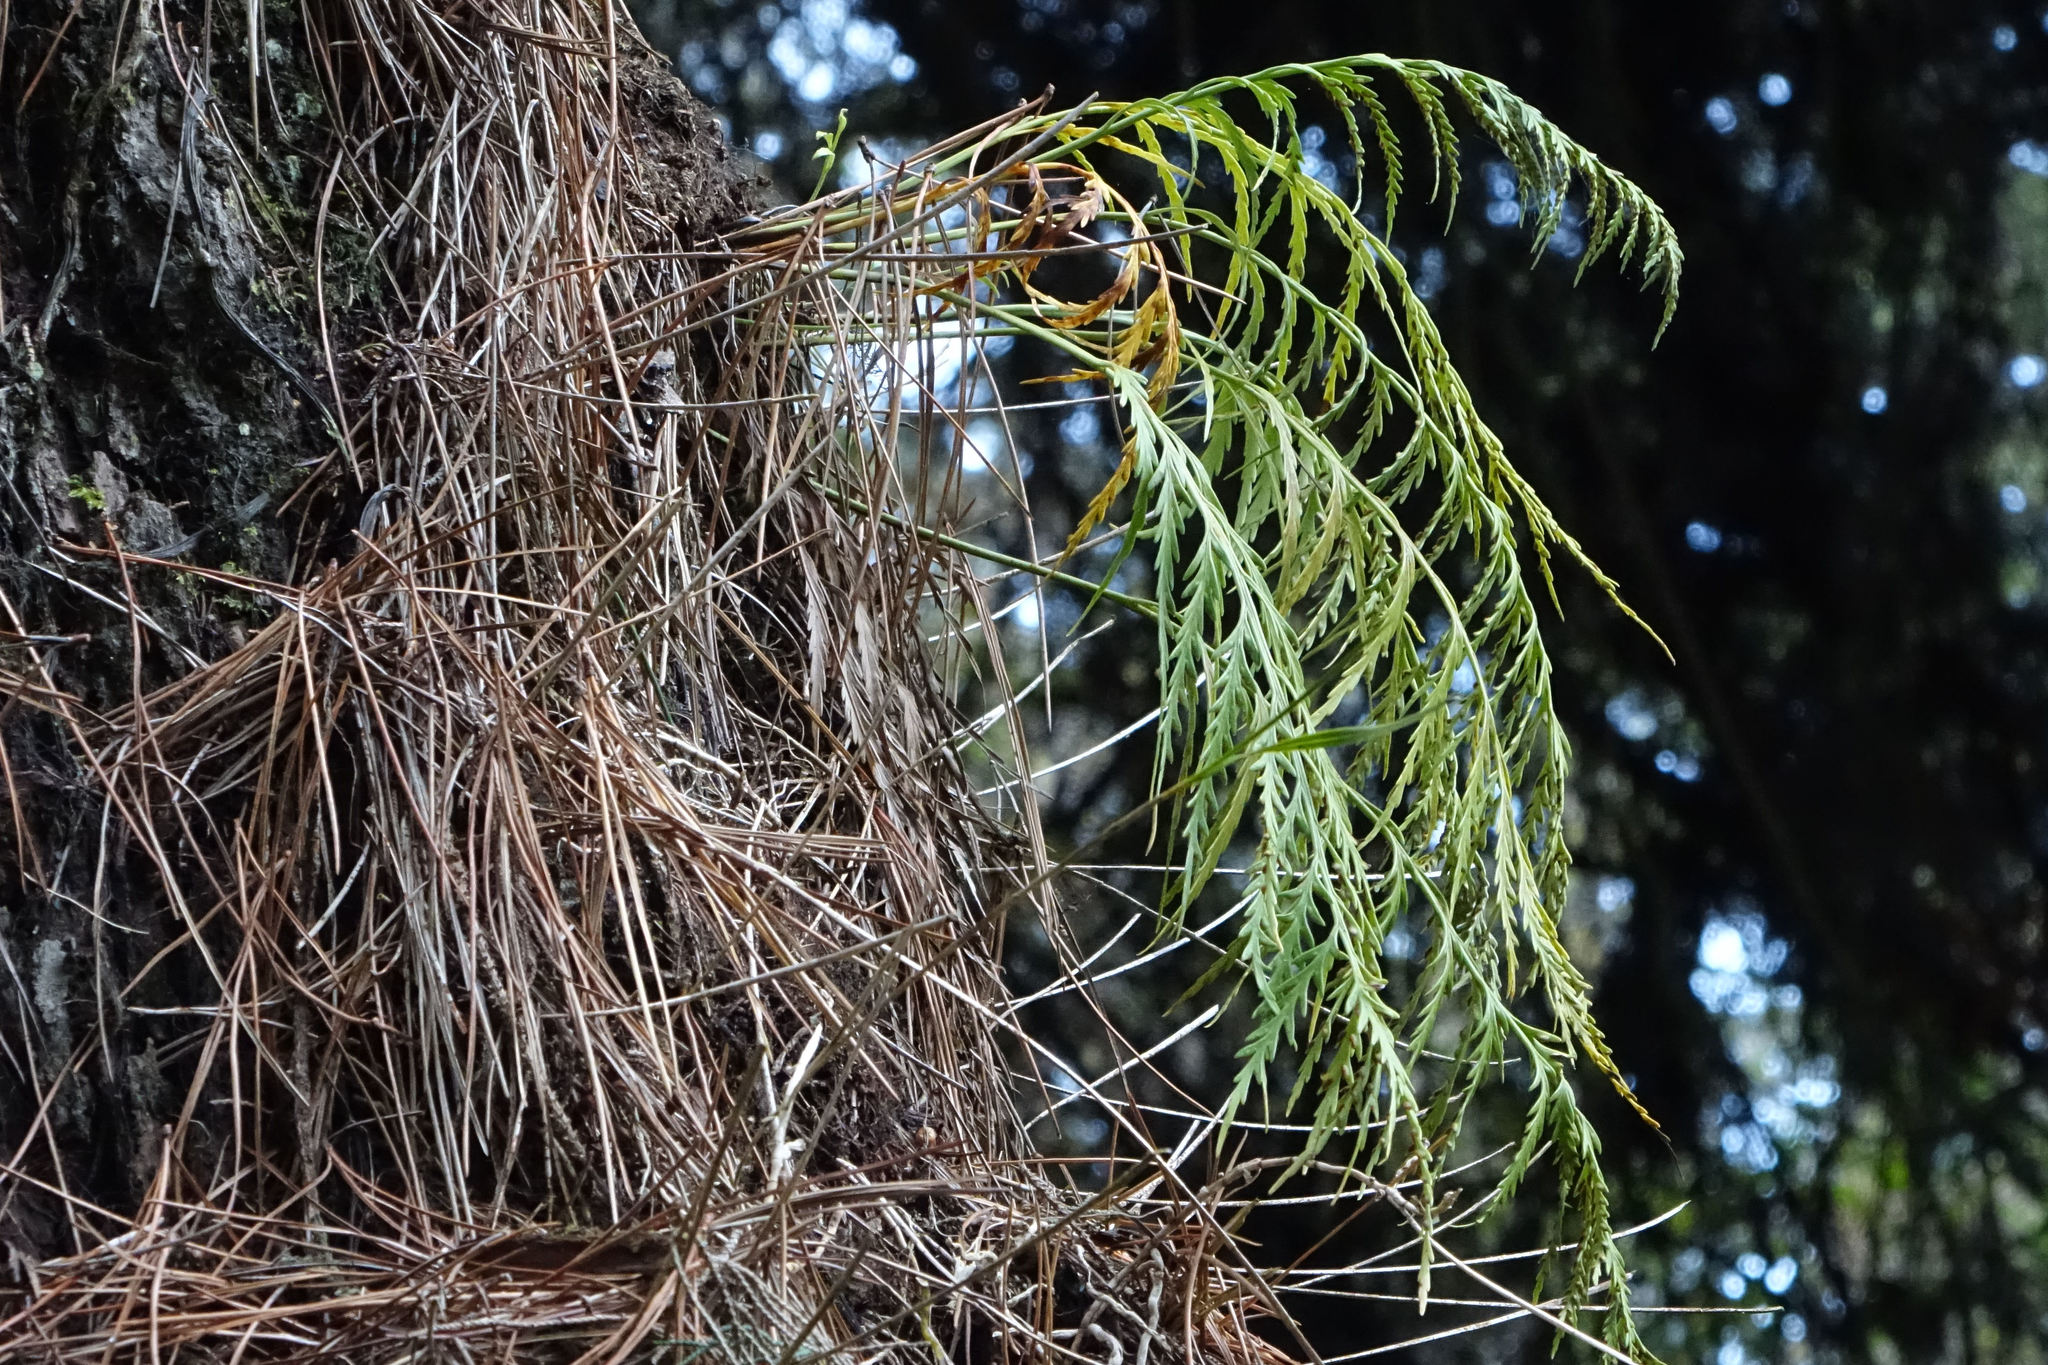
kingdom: Plantae
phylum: Tracheophyta
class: Polypodiopsida
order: Polypodiales
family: Aspleniaceae
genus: Asplenium
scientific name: Asplenium flaccidum
